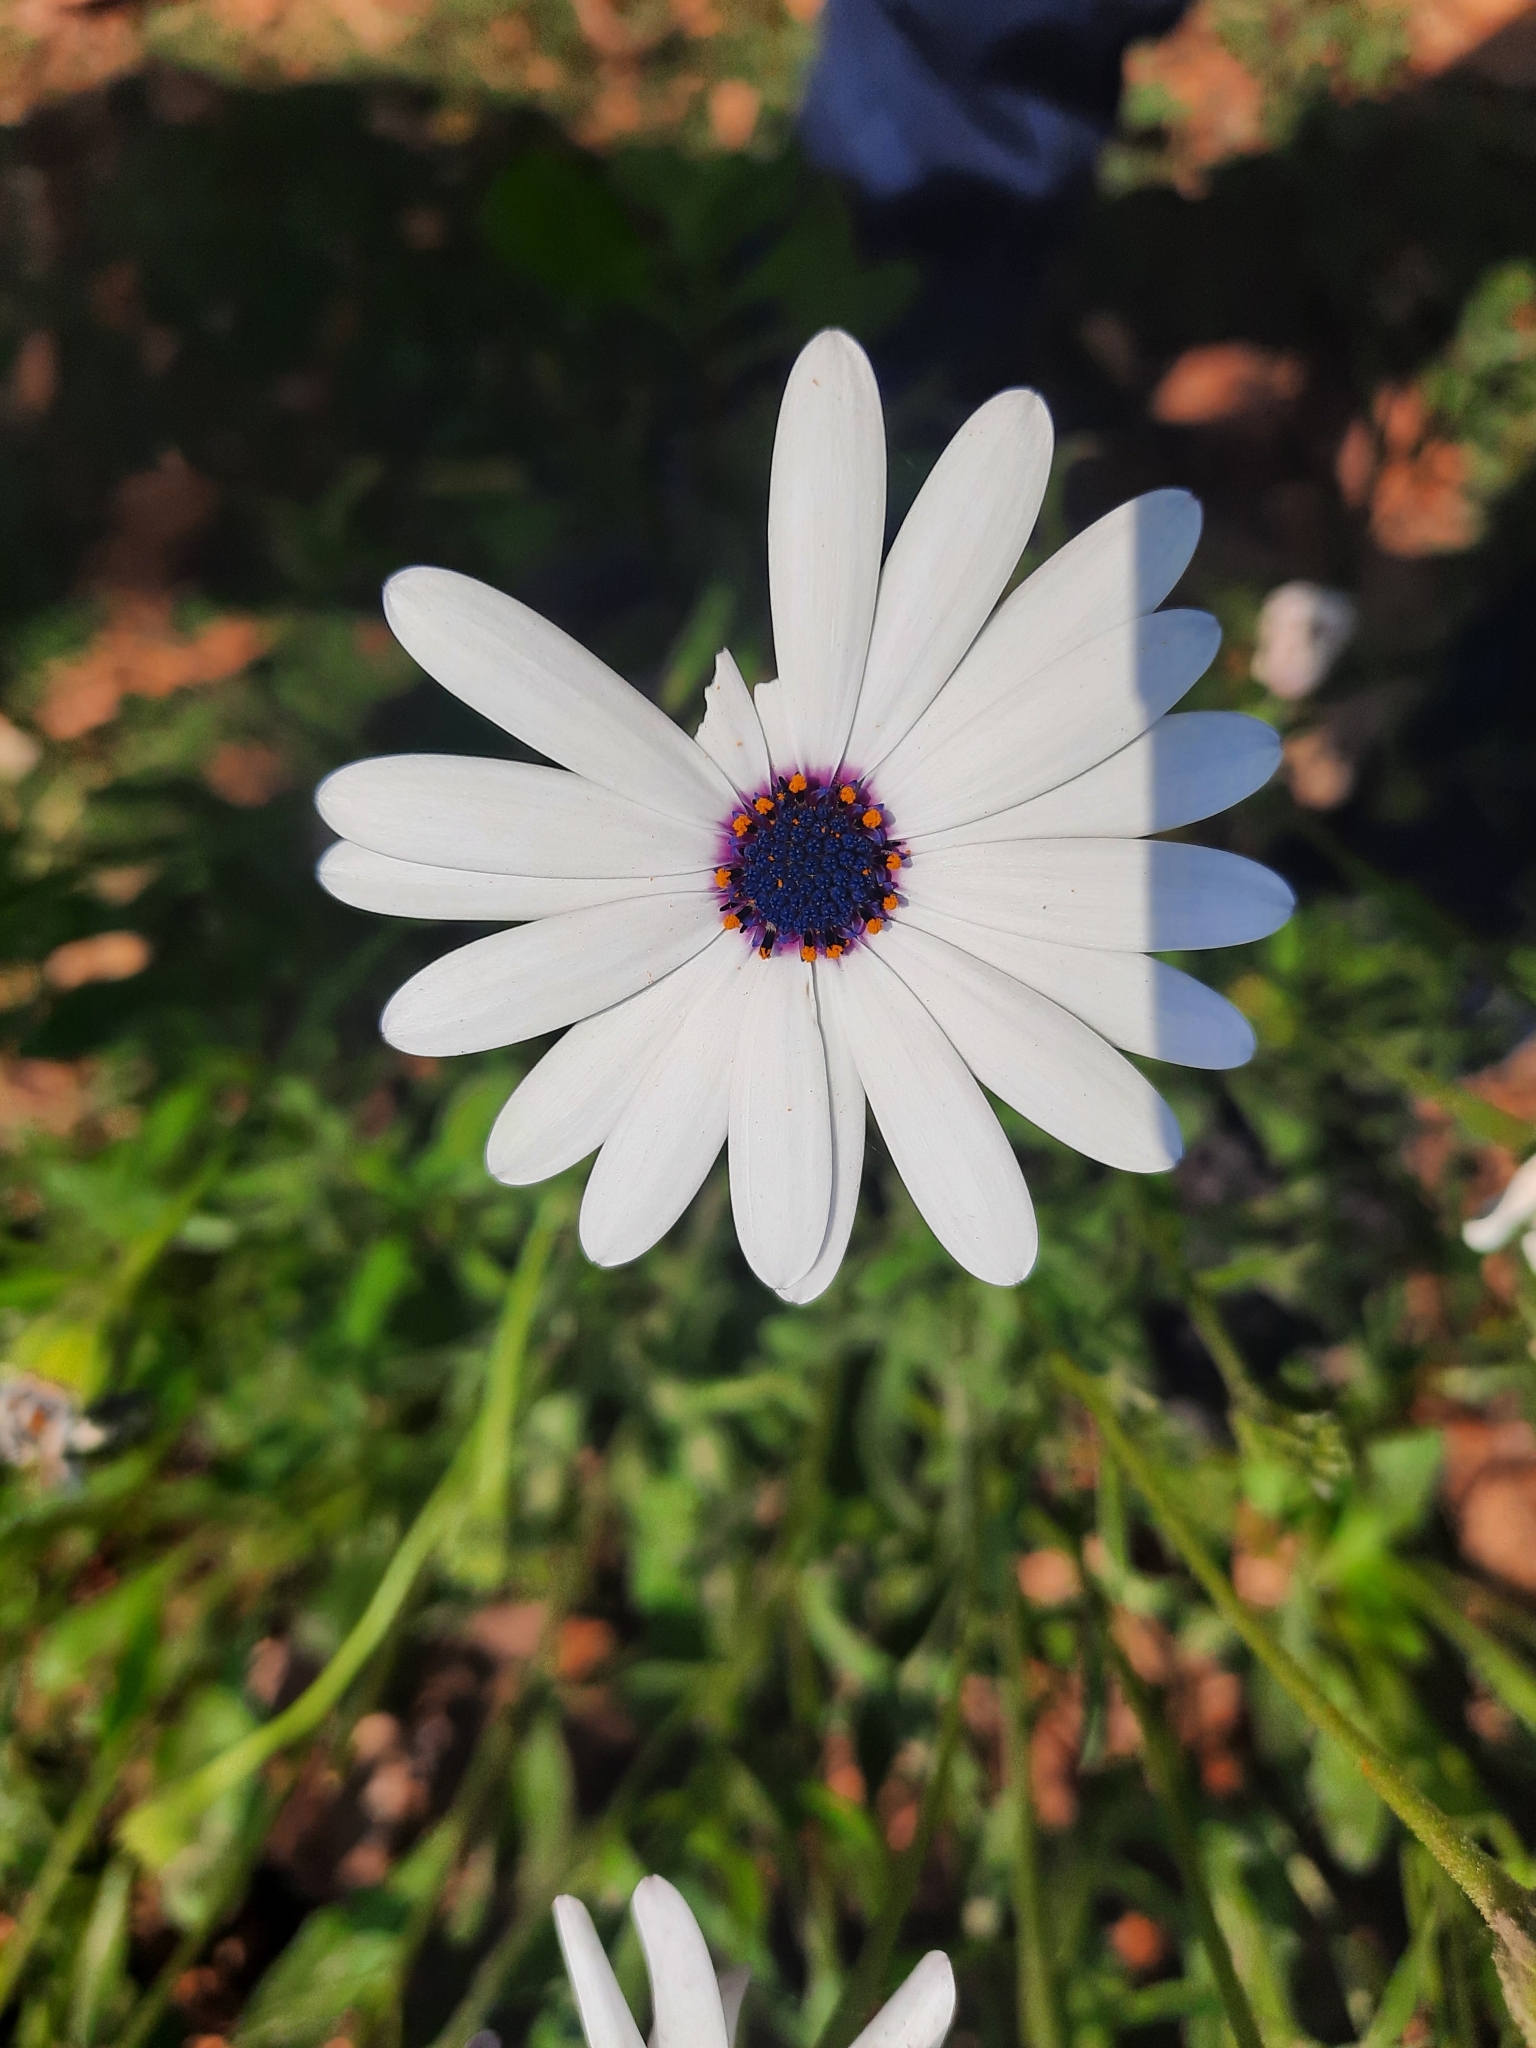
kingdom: Plantae
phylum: Tracheophyta
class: Magnoliopsida
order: Asterales
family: Asteraceae
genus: Dimorphotheca
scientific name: Dimorphotheca pluvialis
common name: Weather prophet
